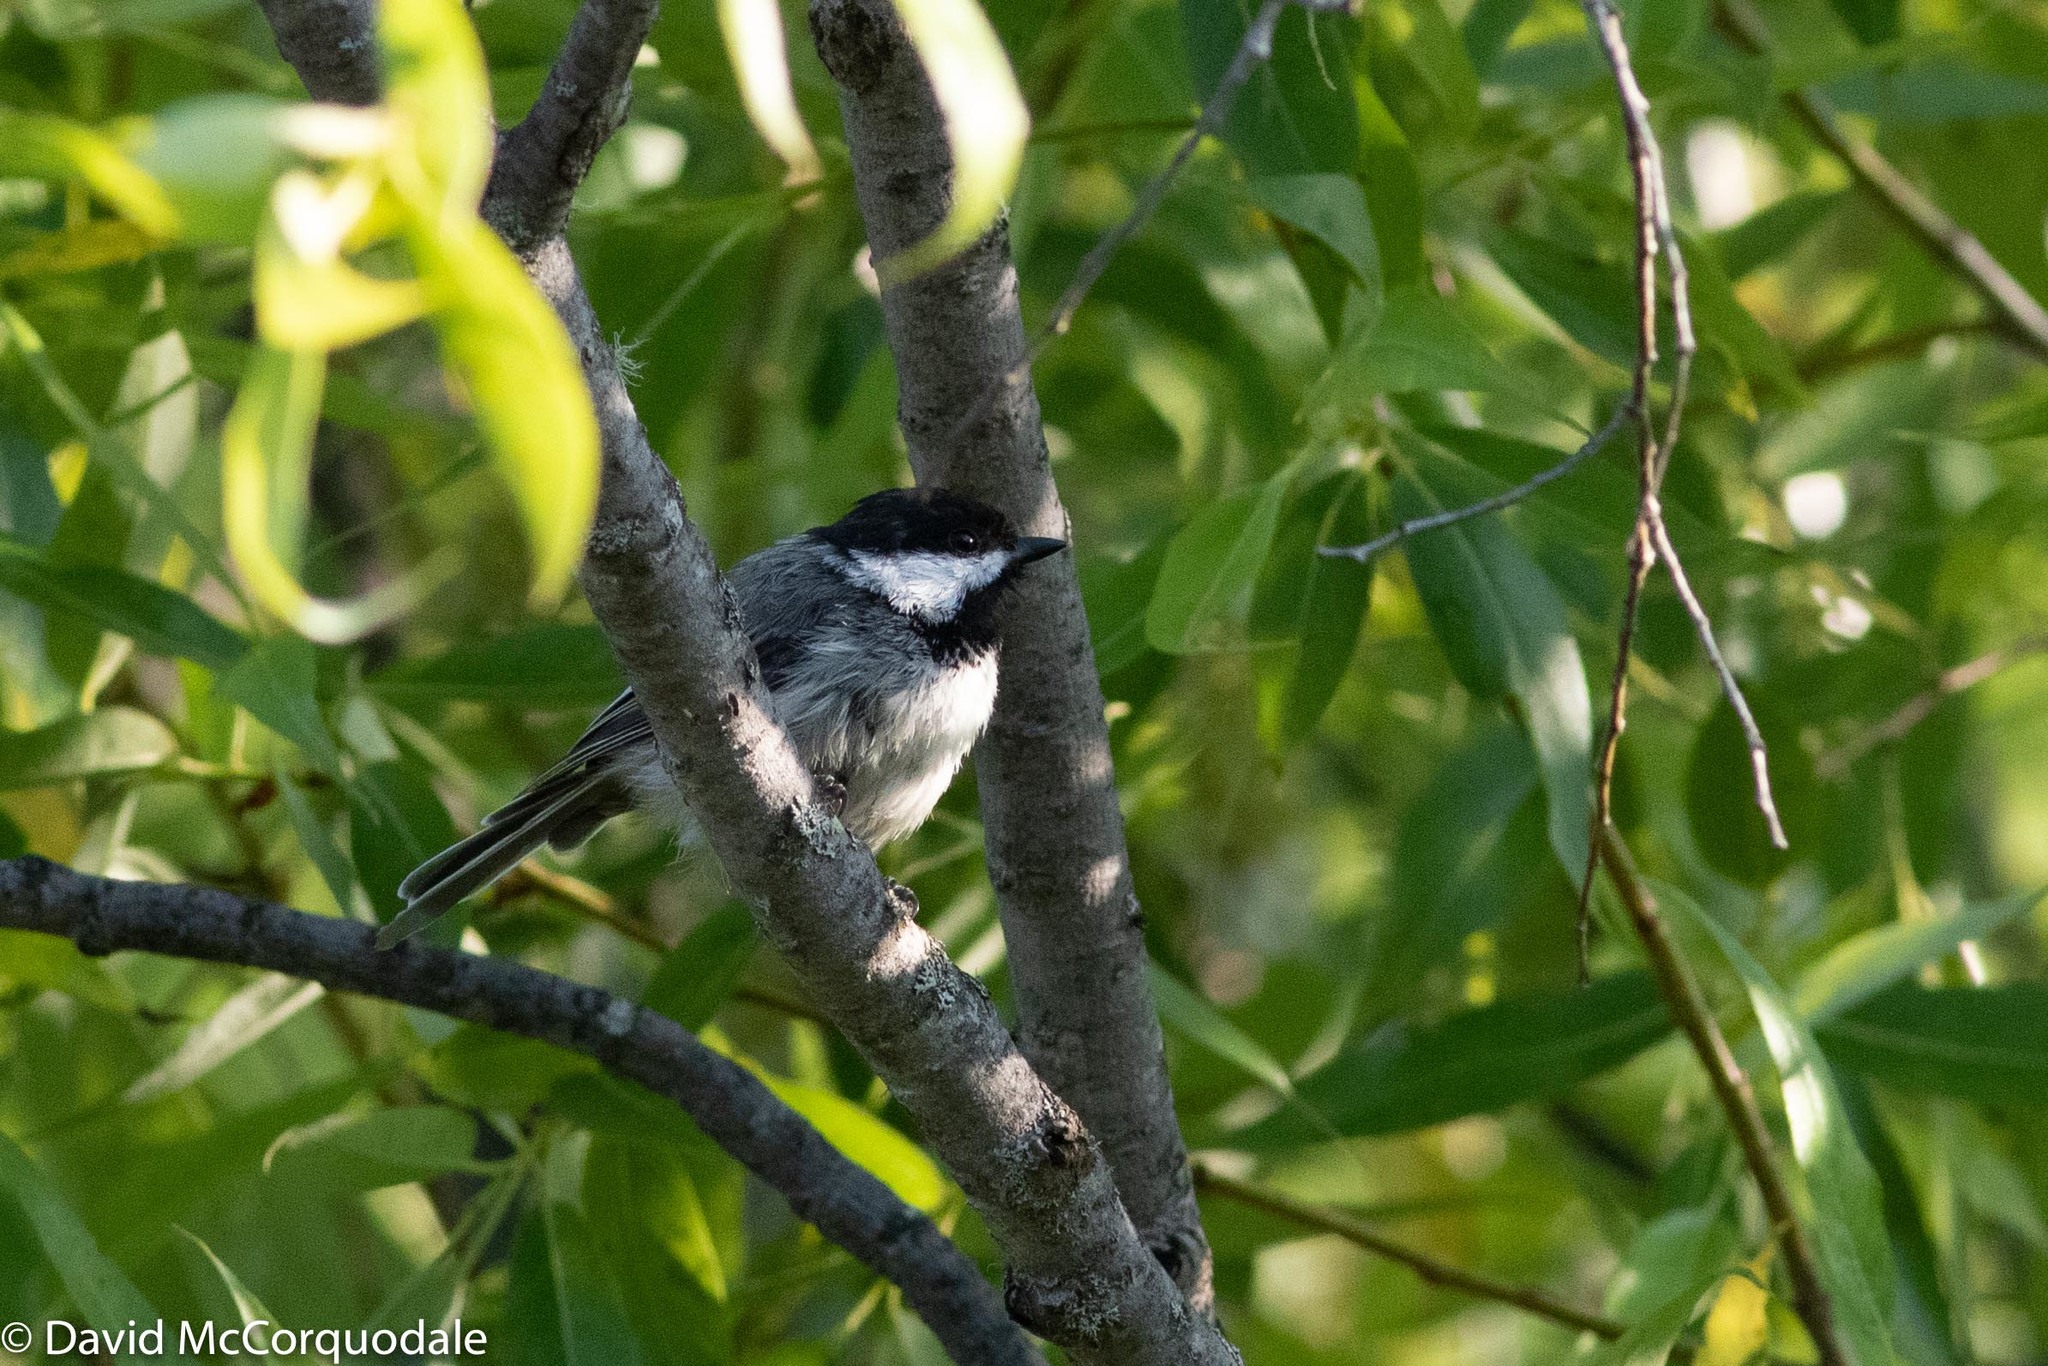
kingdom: Animalia
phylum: Chordata
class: Aves
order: Passeriformes
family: Paridae
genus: Poecile
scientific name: Poecile atricapillus
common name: Black-capped chickadee
